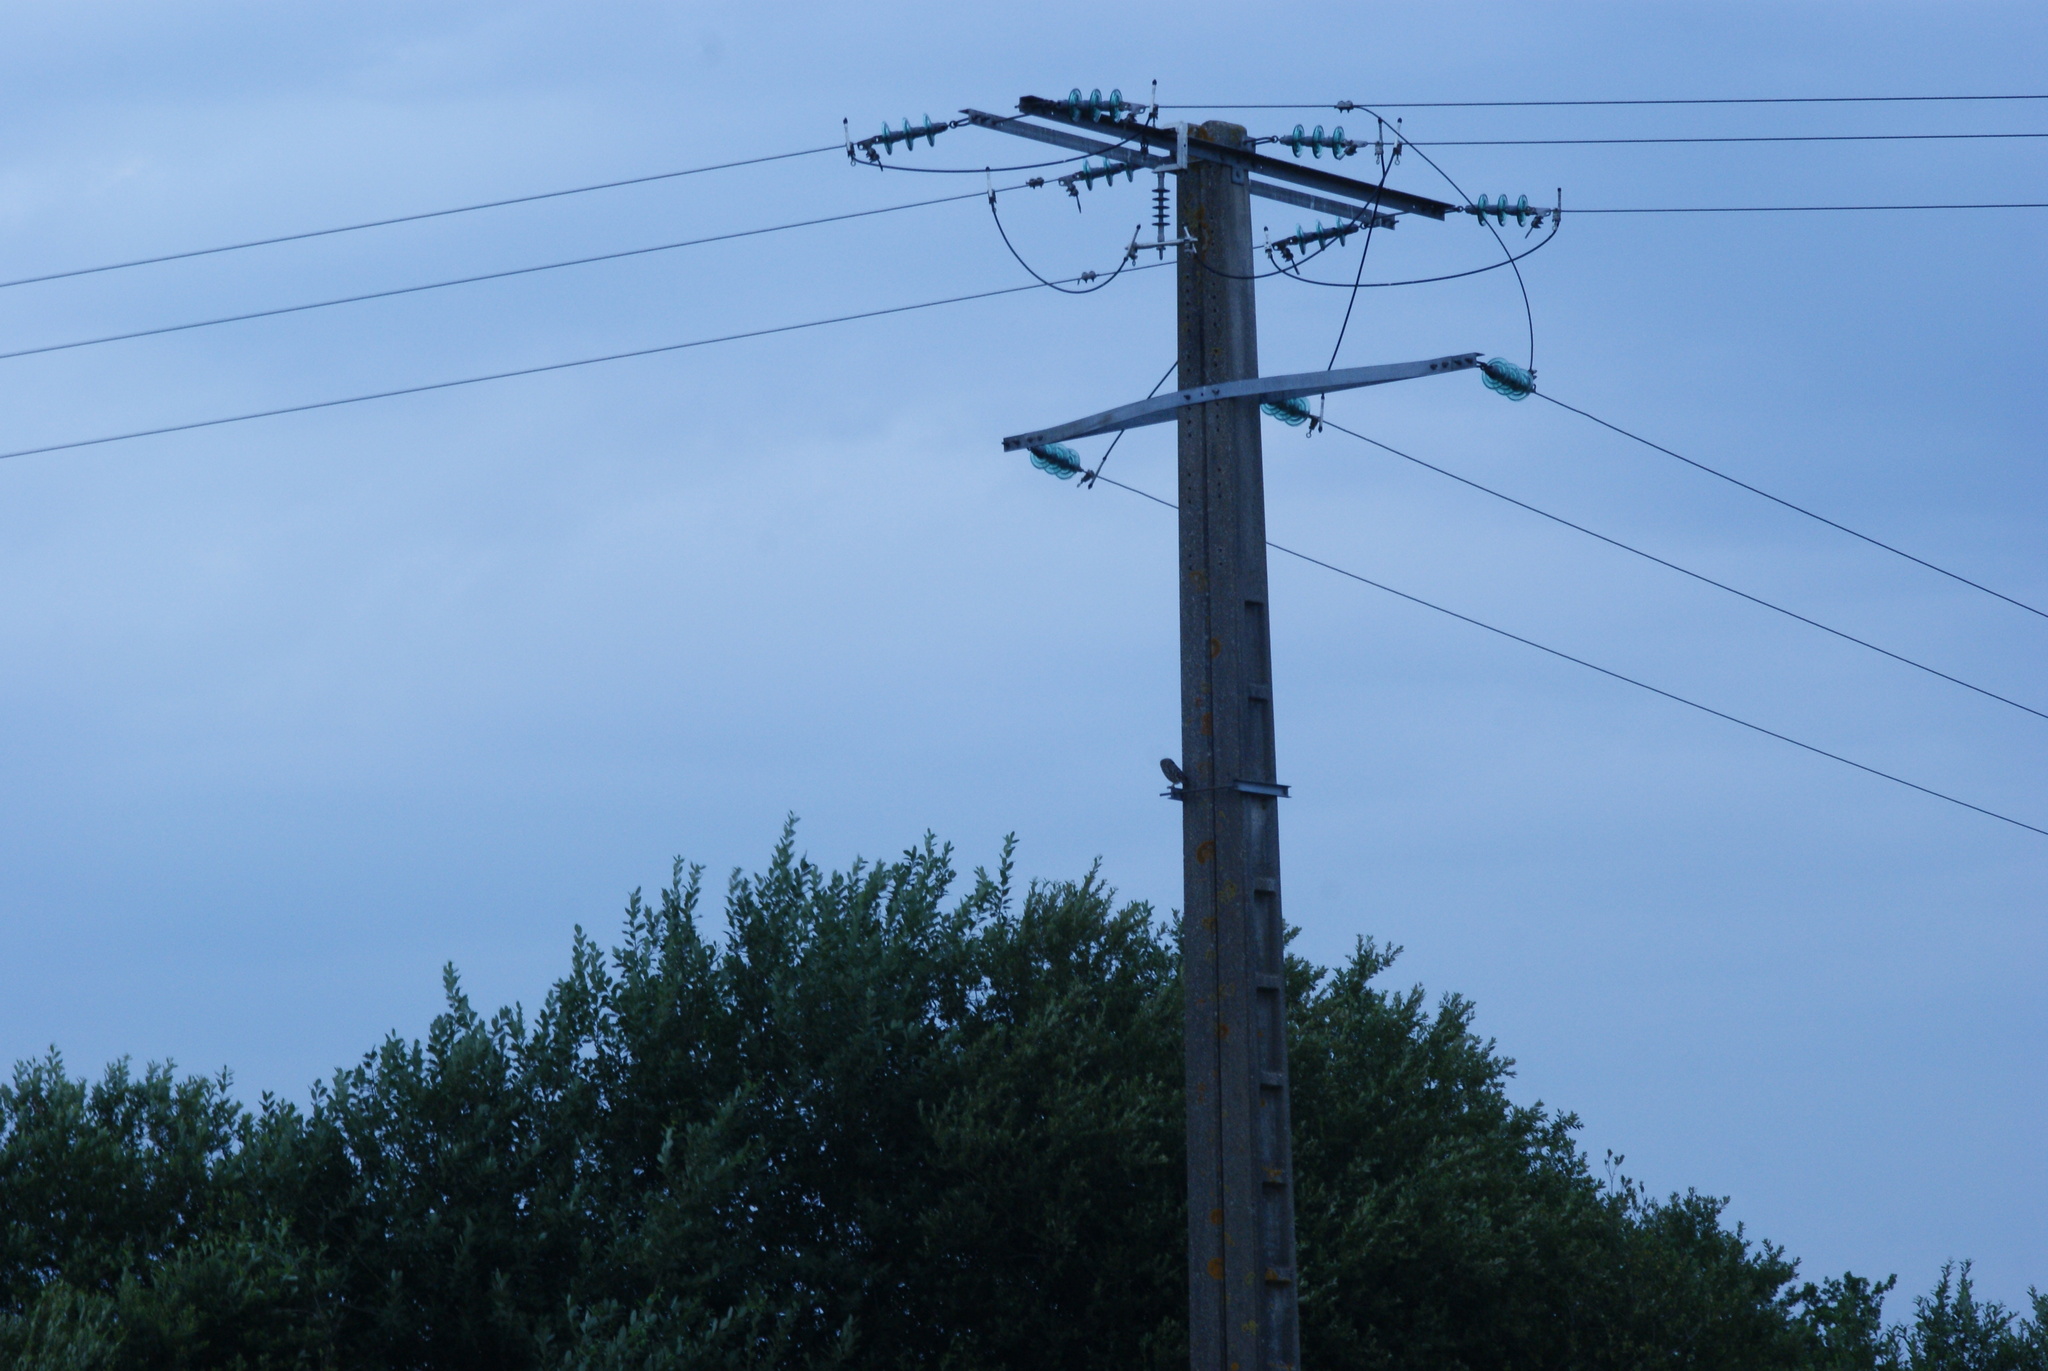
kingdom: Animalia
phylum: Chordata
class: Aves
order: Strigiformes
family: Strigidae
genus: Athene
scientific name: Athene noctua
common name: Little owl
